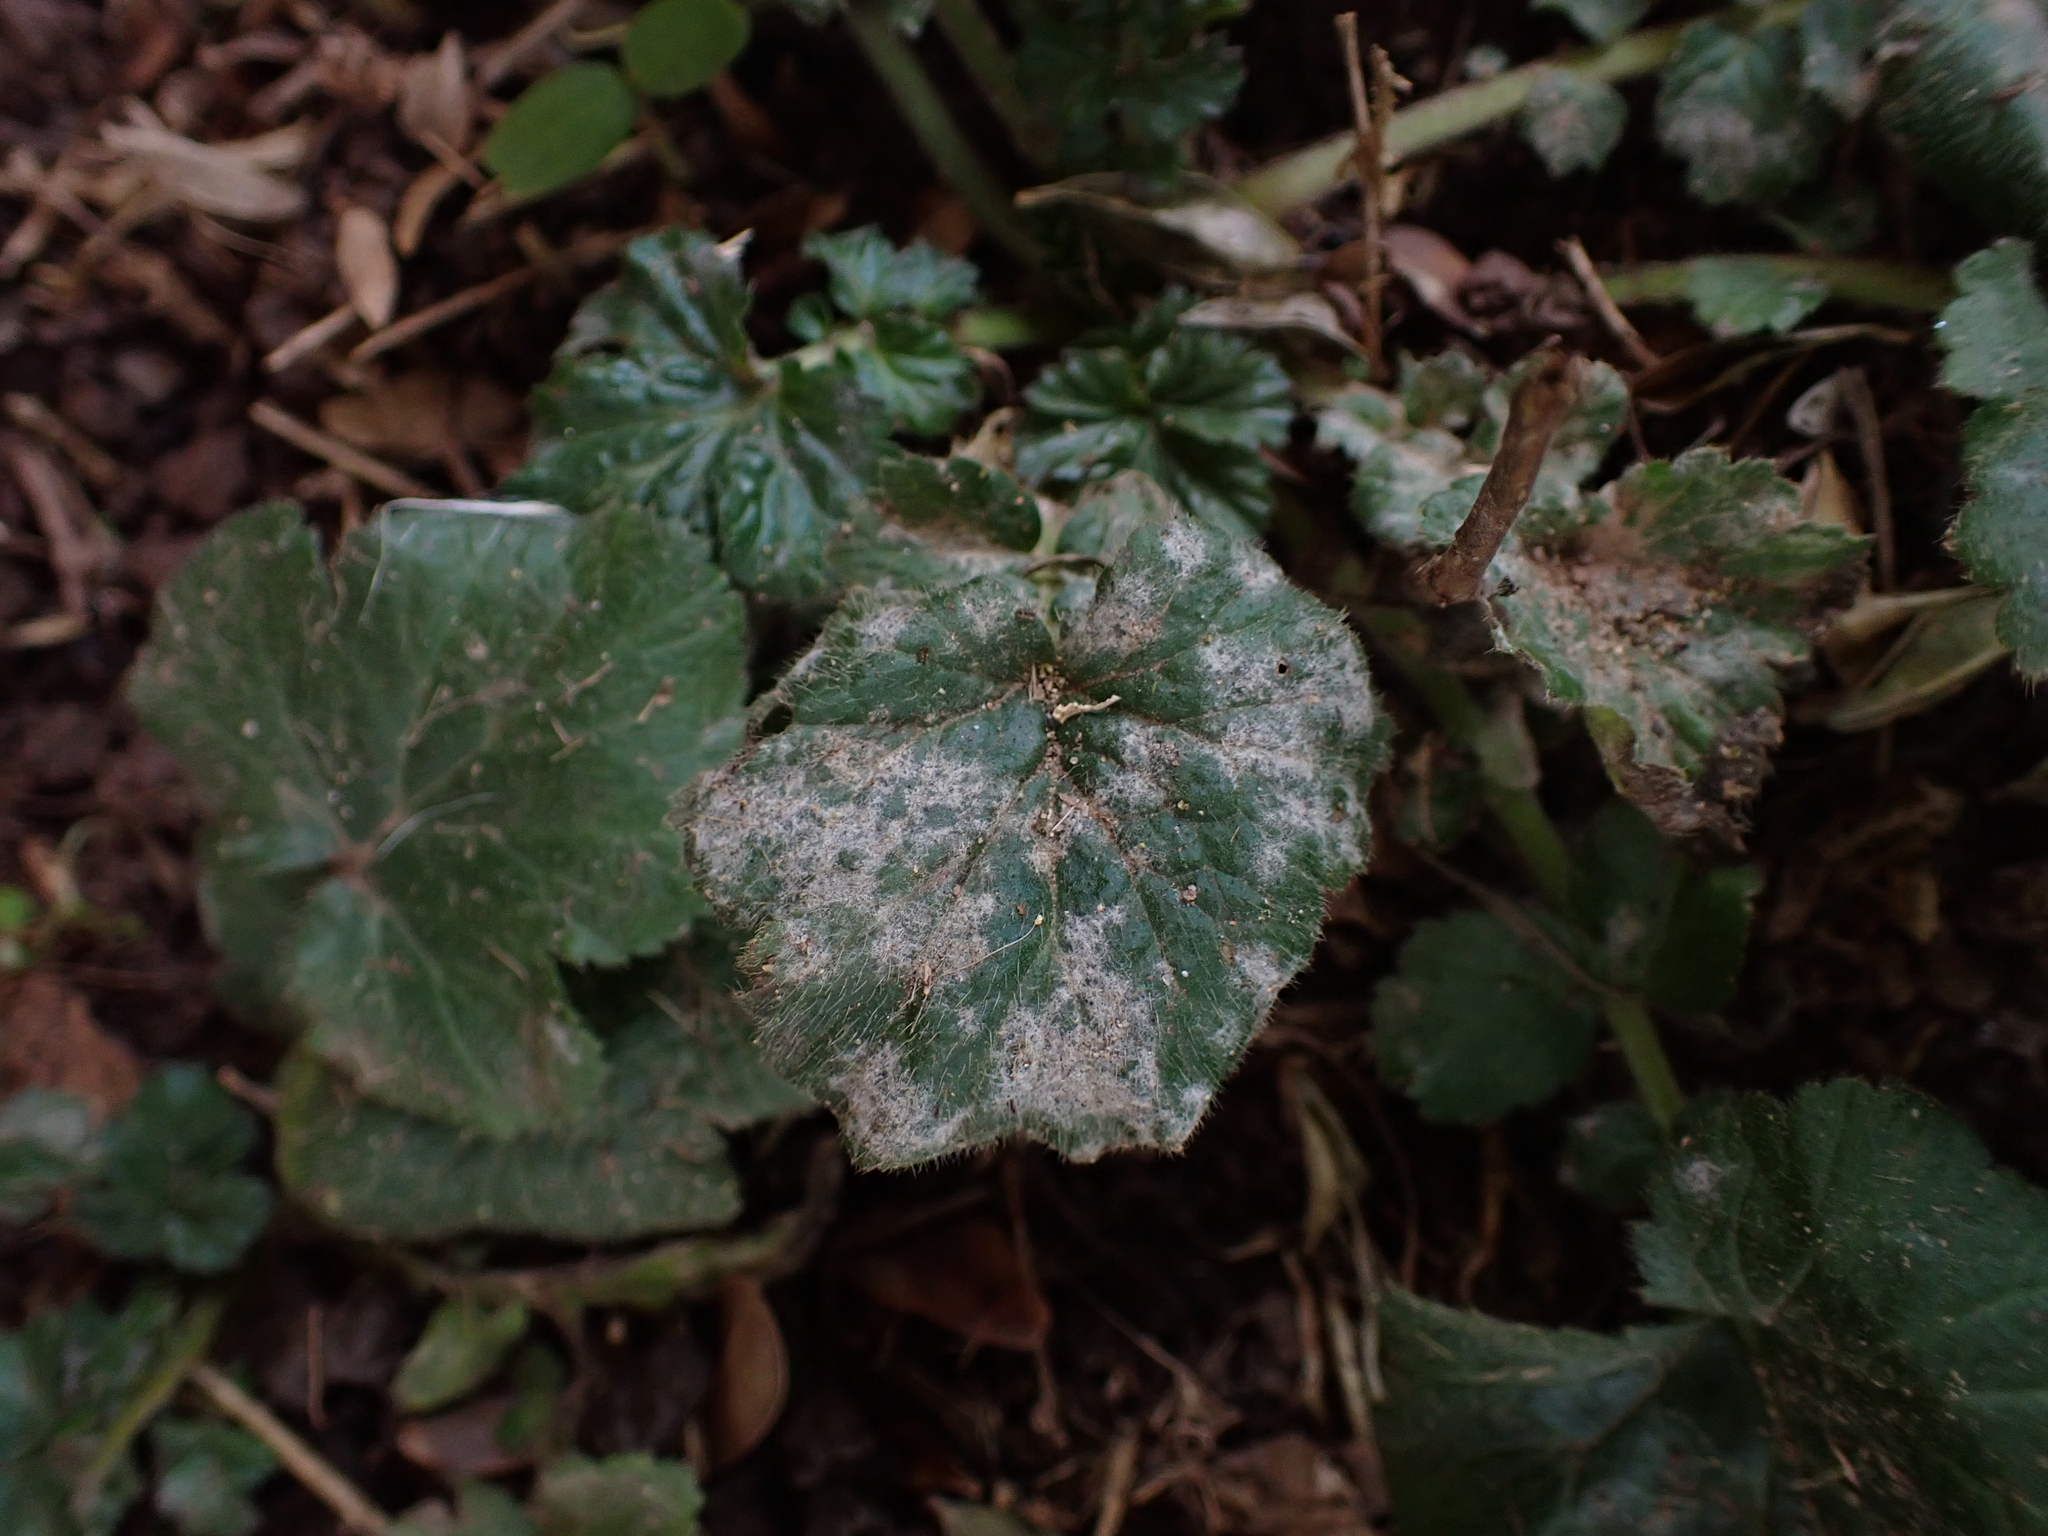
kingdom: Fungi
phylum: Ascomycota
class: Leotiomycetes
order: Helotiales
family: Erysiphaceae
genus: Podosphaera
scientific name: Podosphaera aphanis
